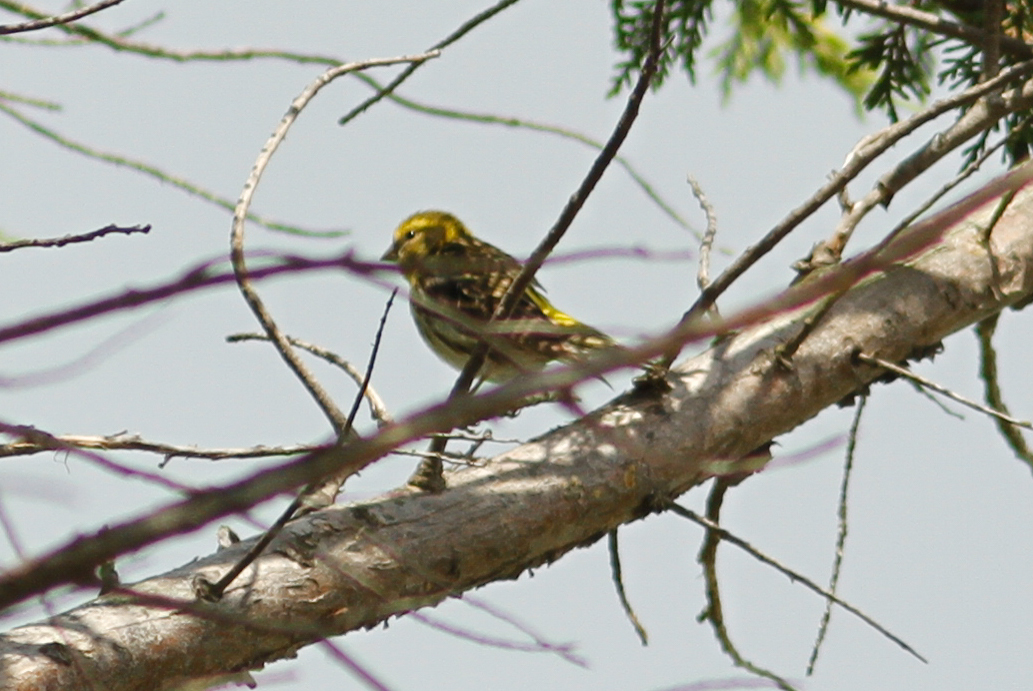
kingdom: Animalia
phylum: Chordata
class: Aves
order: Passeriformes
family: Fringillidae
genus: Serinus
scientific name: Serinus serinus
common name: European serin
